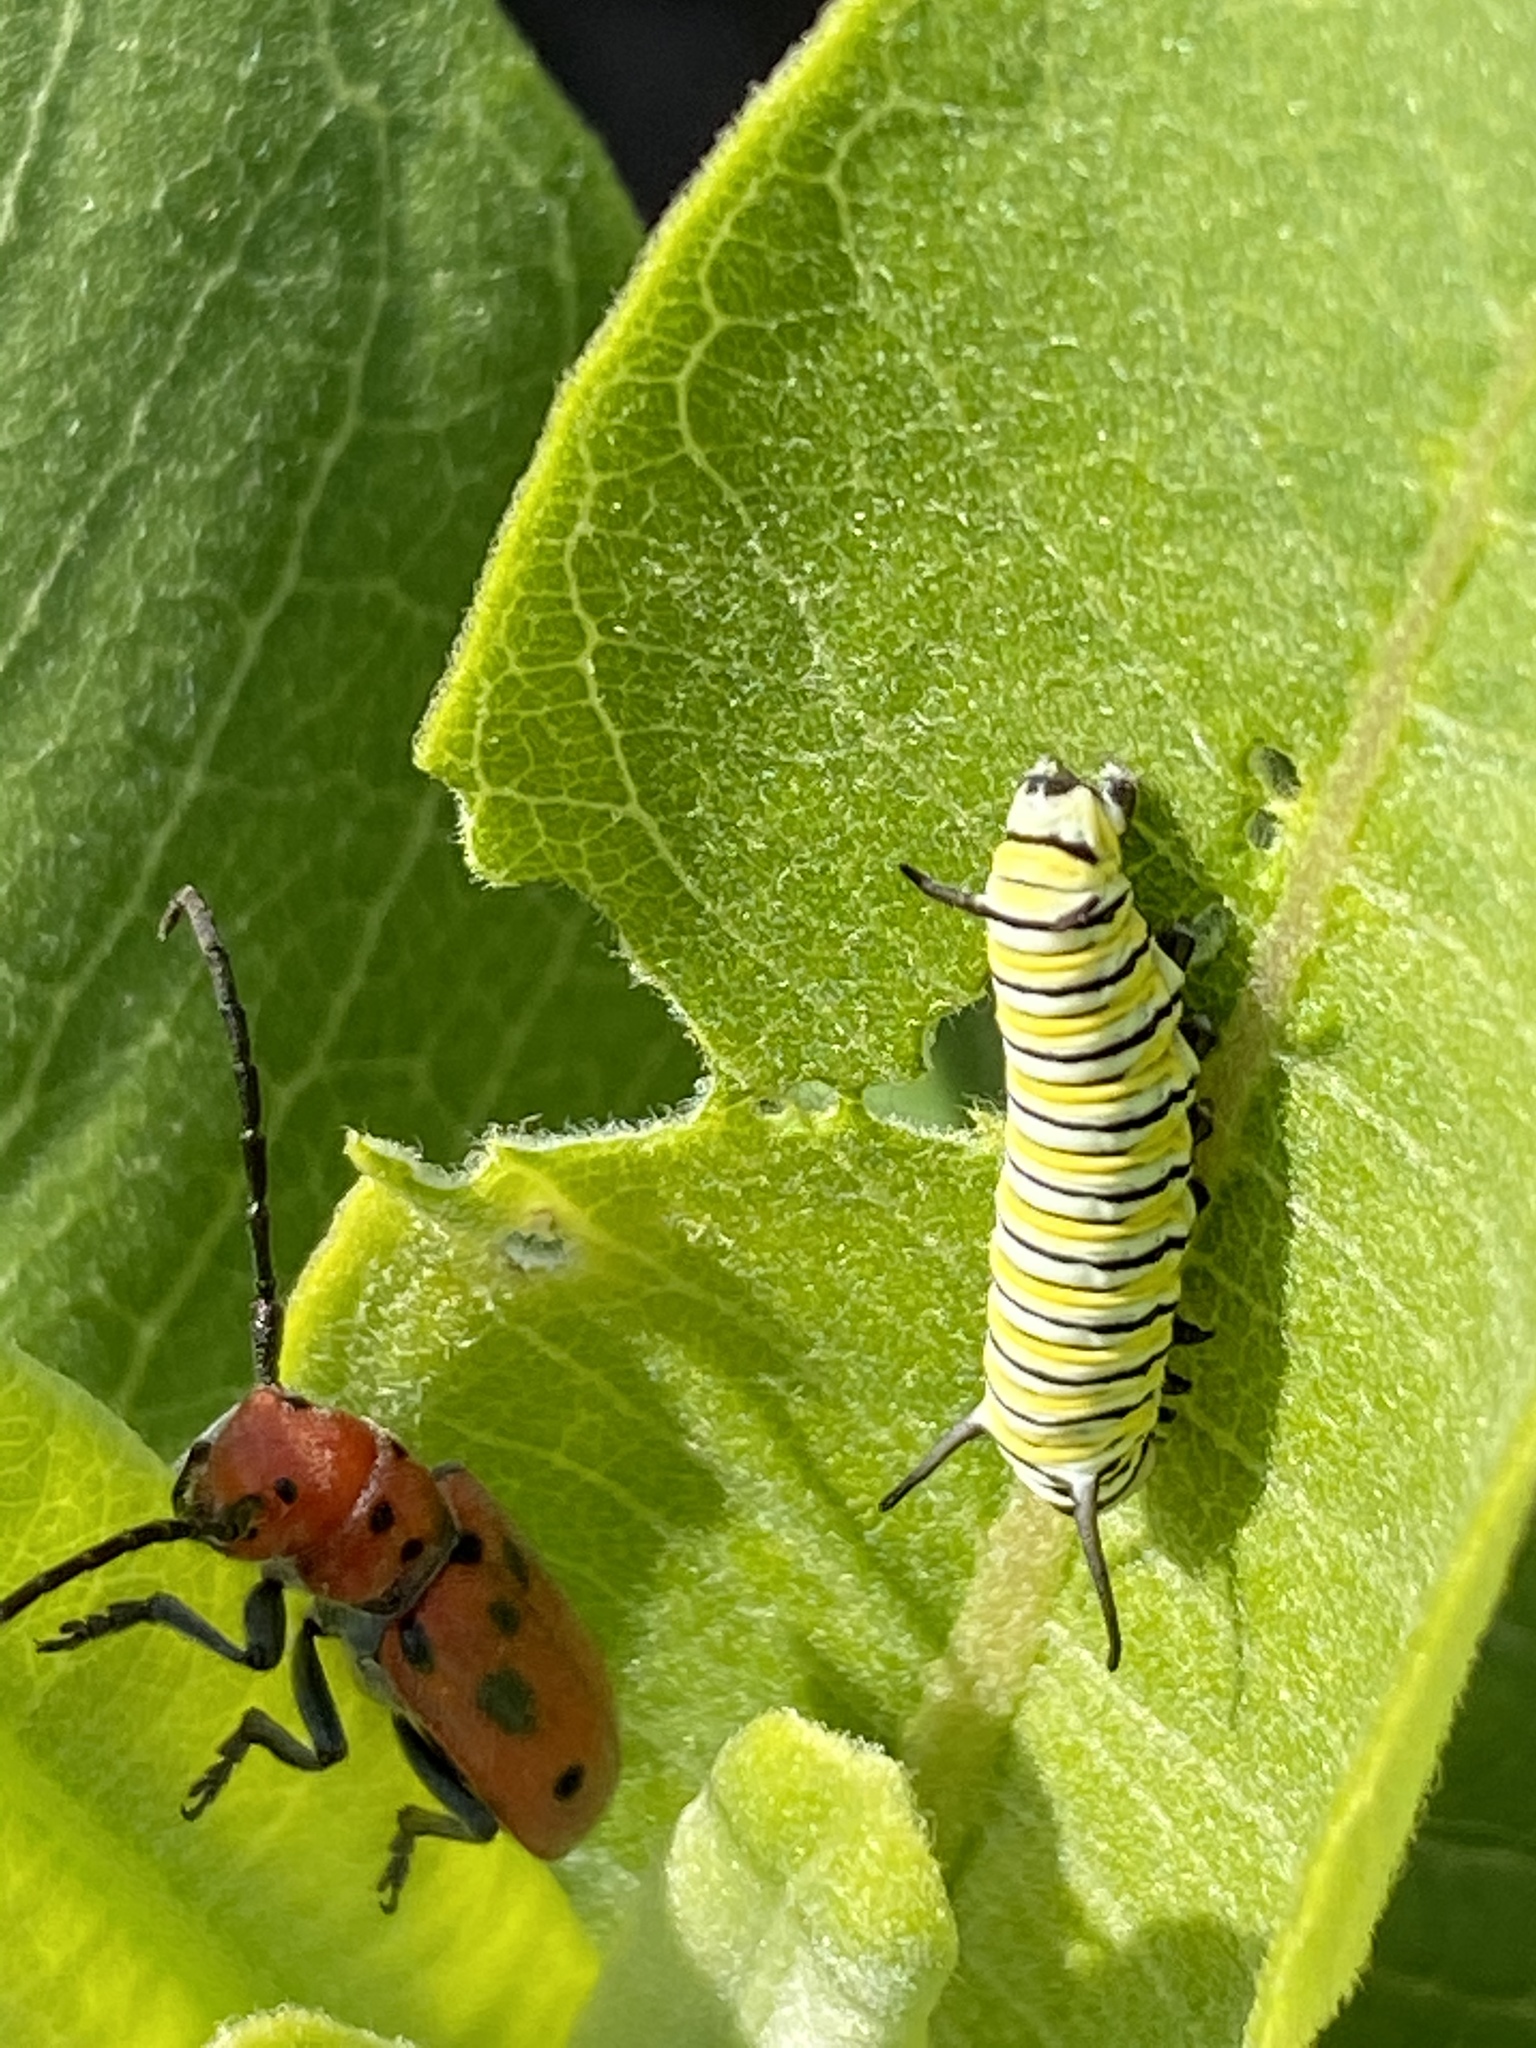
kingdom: Animalia
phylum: Arthropoda
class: Insecta
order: Lepidoptera
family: Nymphalidae
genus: Danaus
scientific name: Danaus plexippus
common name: Monarch
